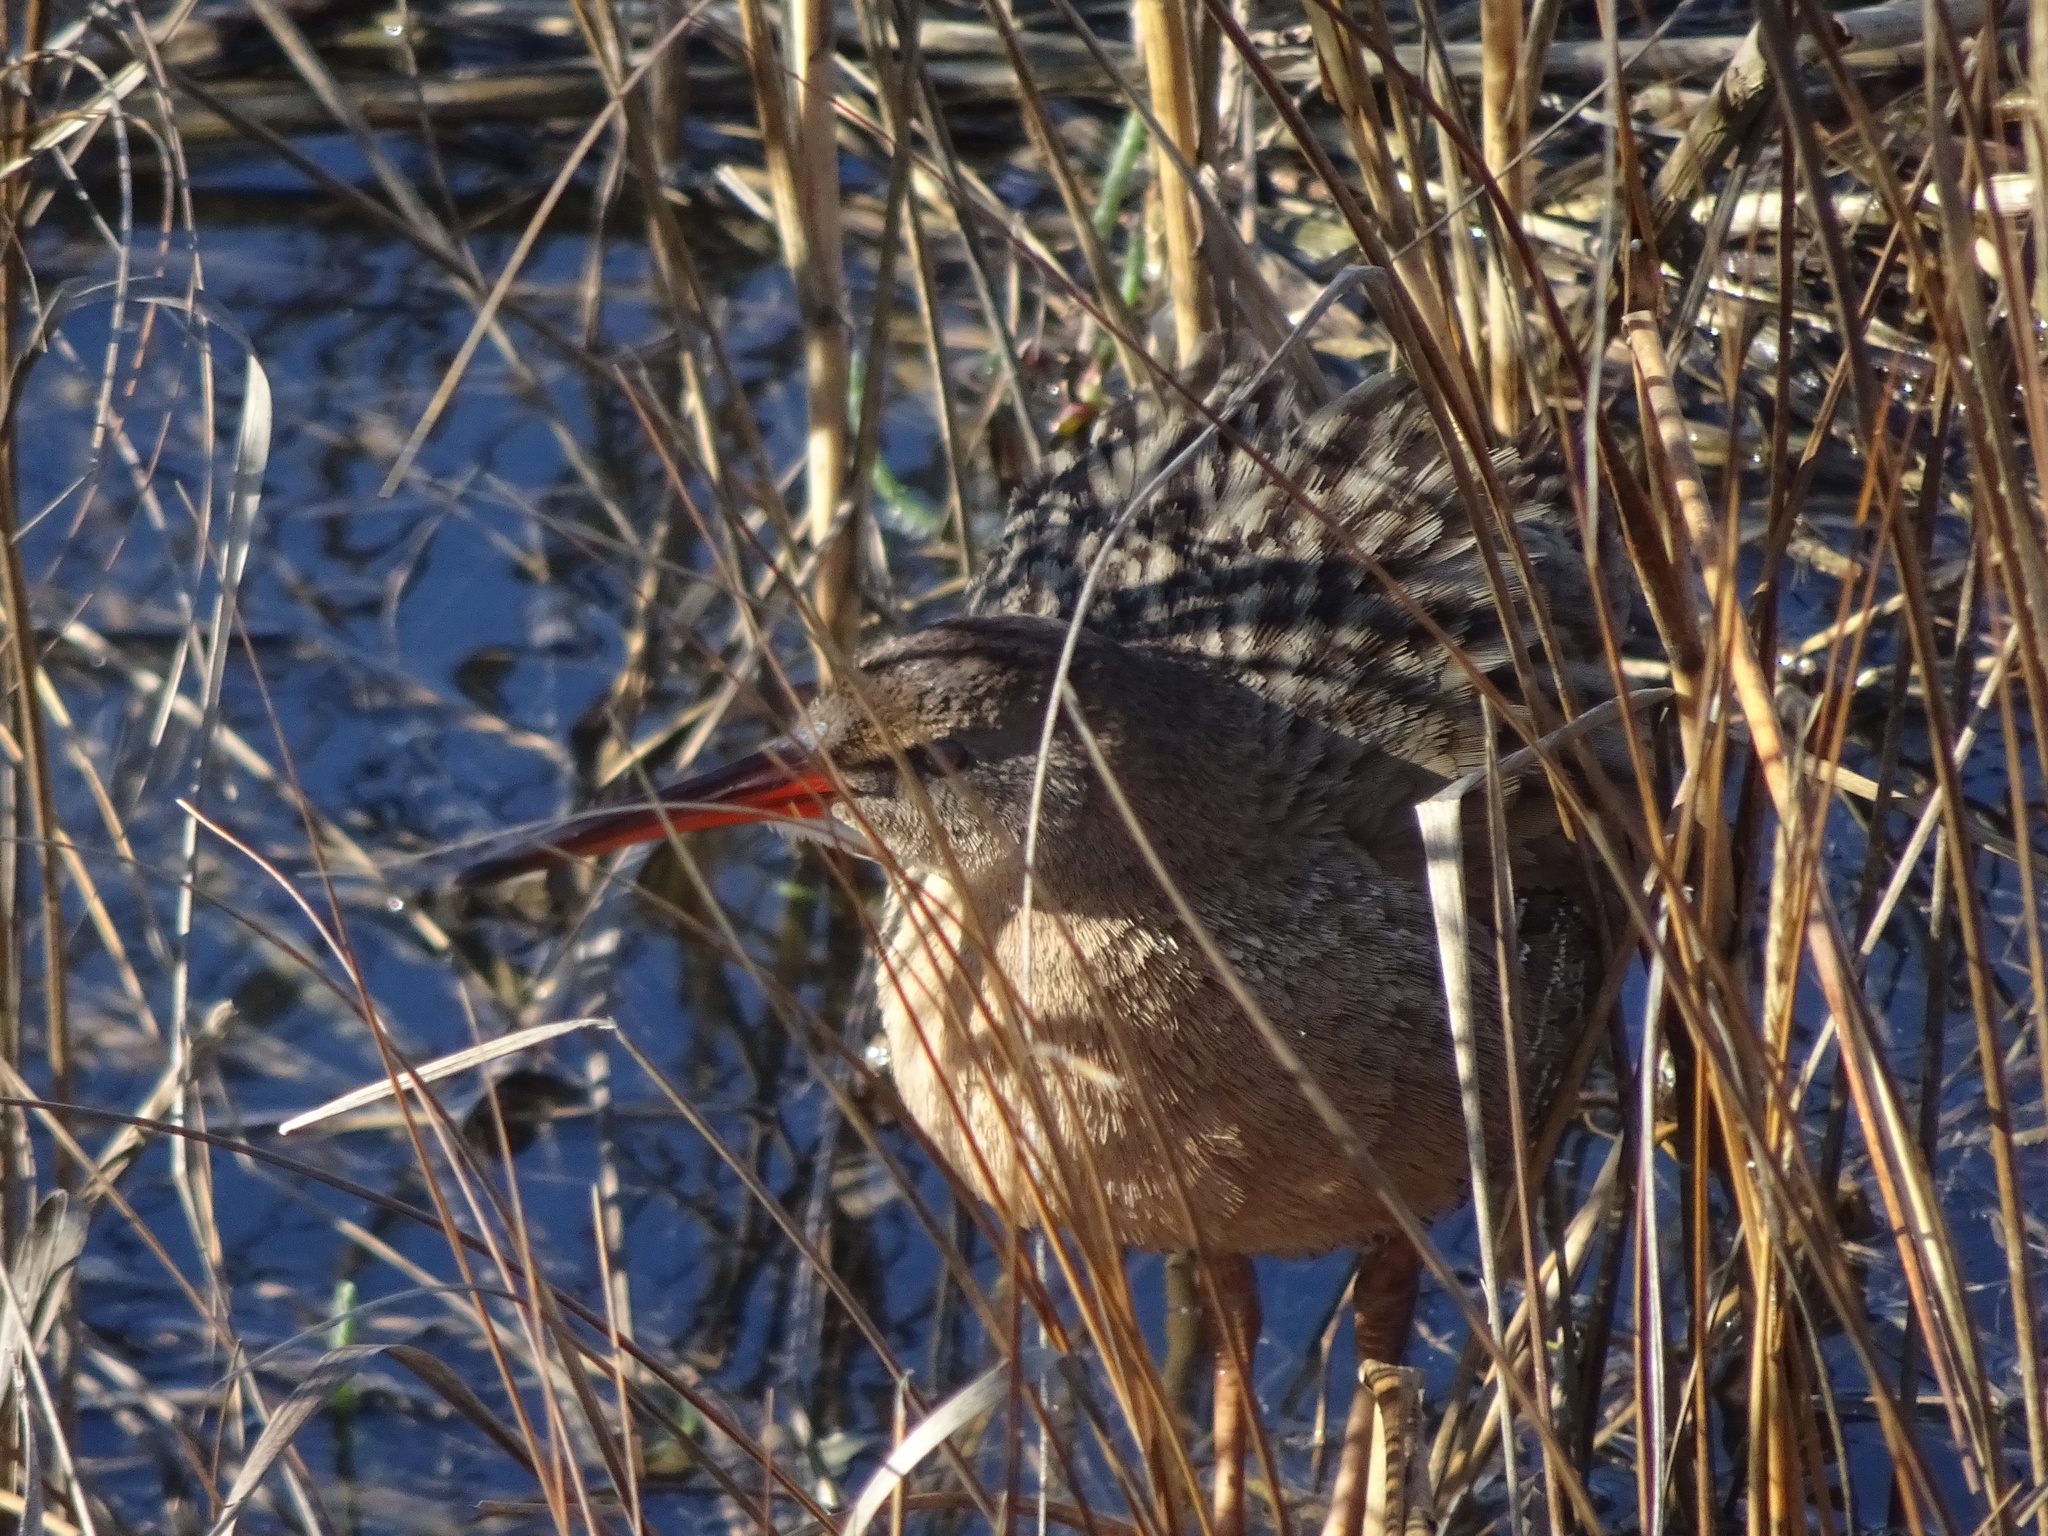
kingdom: Animalia
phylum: Chordata
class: Aves
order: Gruiformes
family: Rallidae
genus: Rallus
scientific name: Rallus obsoletus
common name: Ridgway's rail
